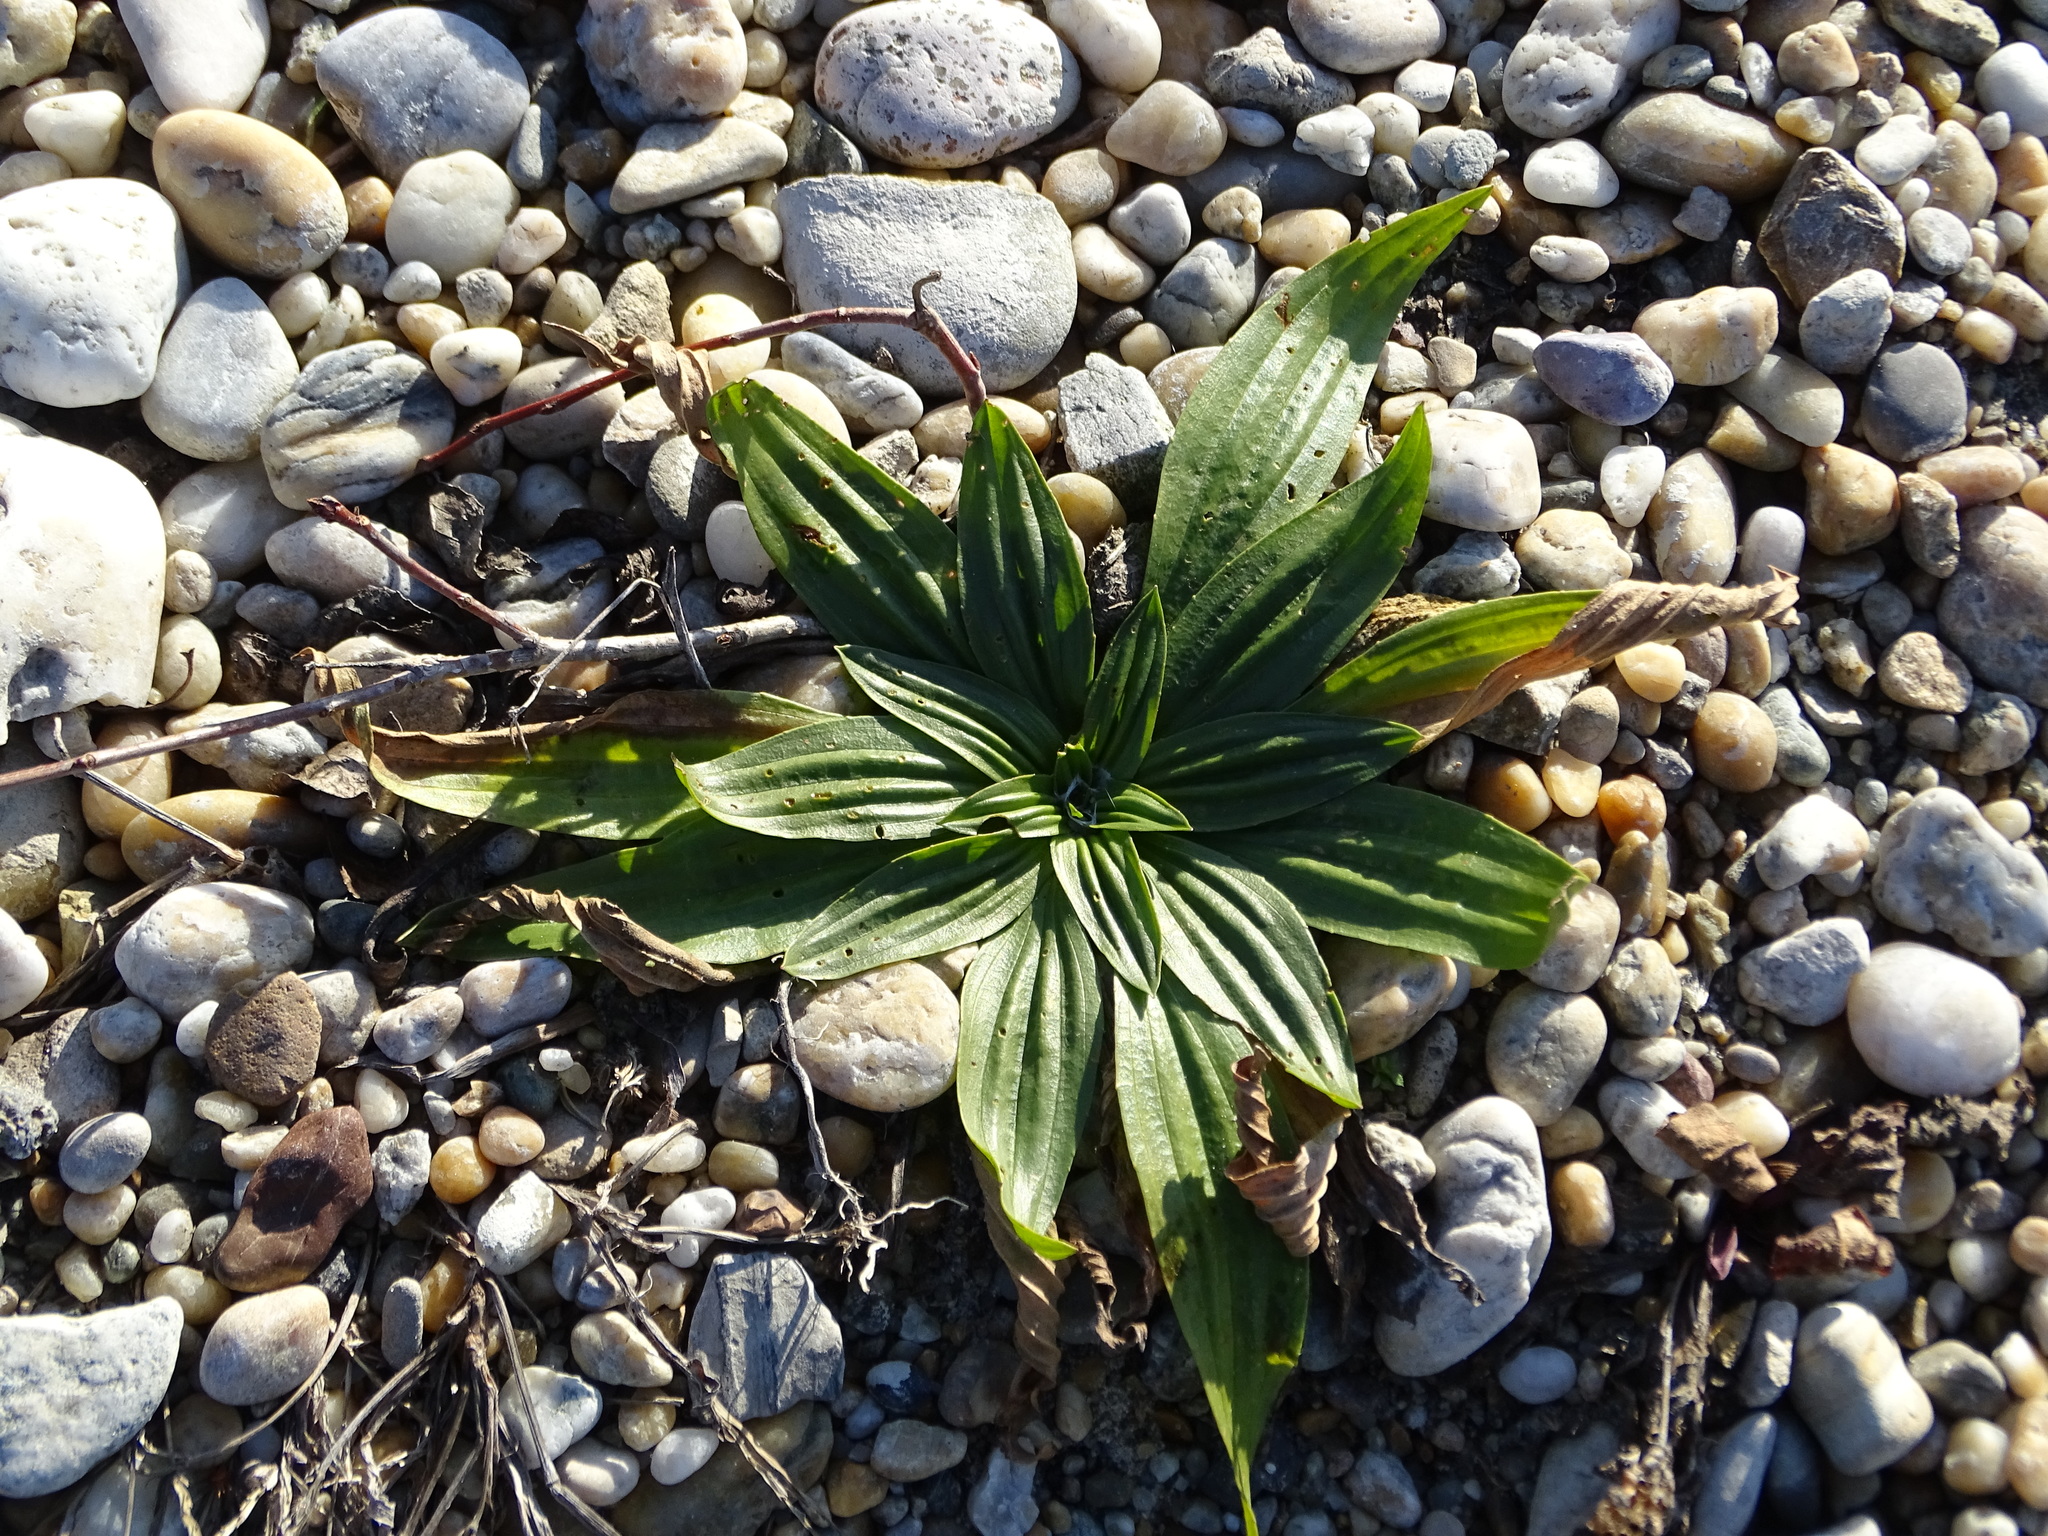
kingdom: Plantae
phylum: Tracheophyta
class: Magnoliopsida
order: Lamiales
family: Plantaginaceae
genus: Plantago
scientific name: Plantago media
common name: Hoary plantain
